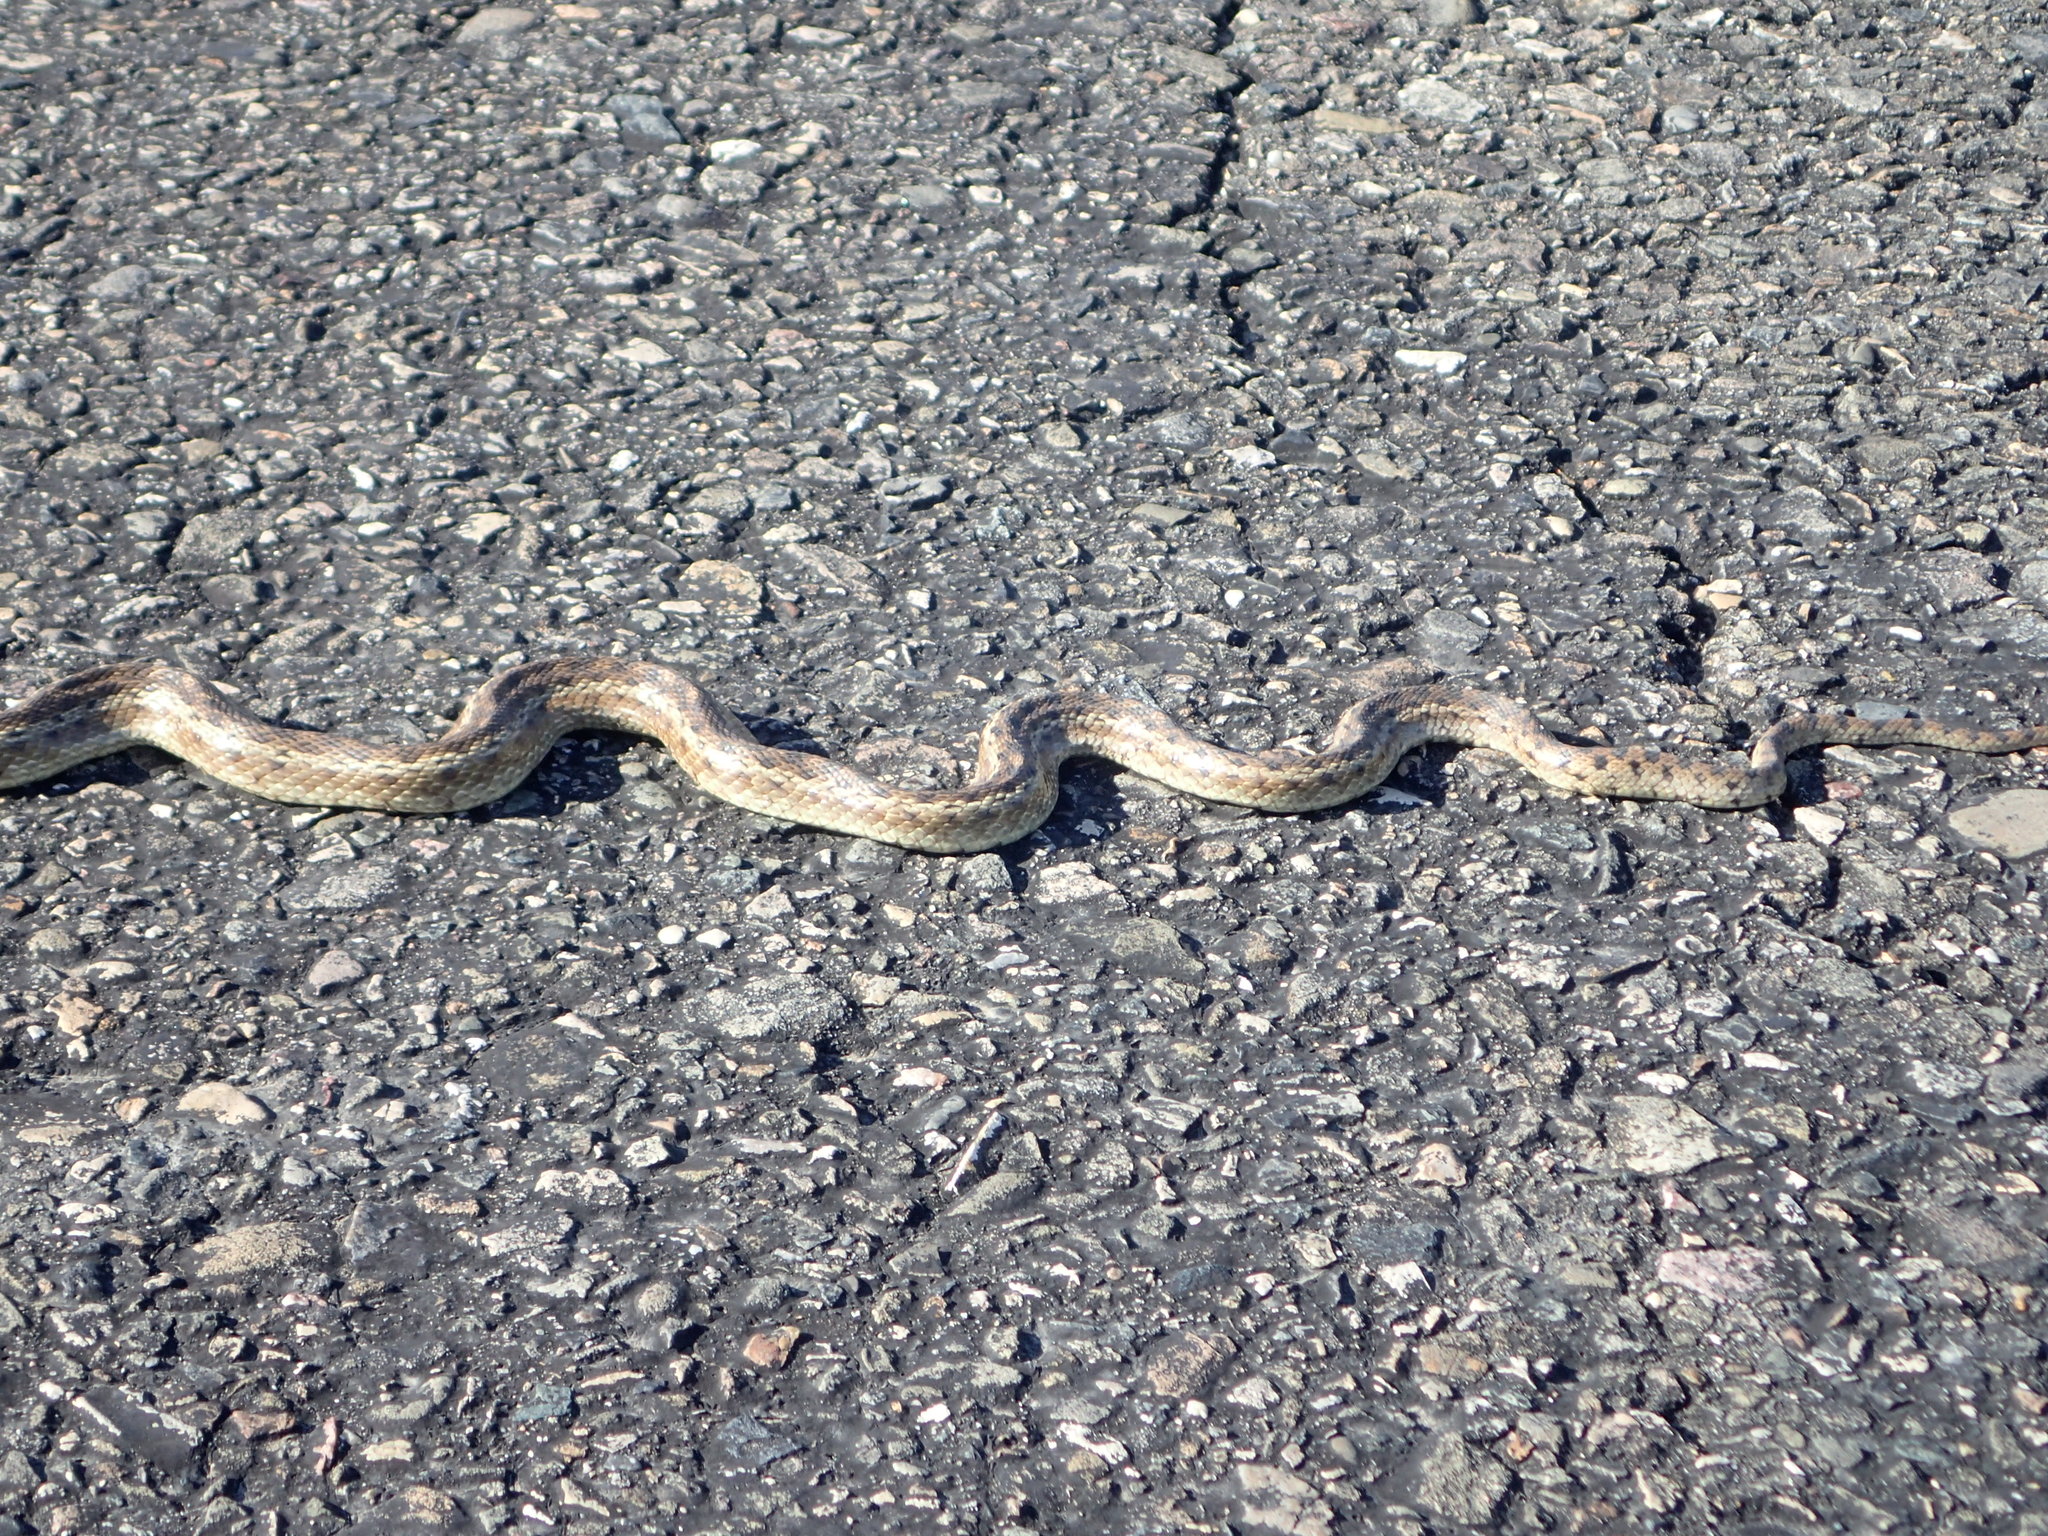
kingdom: Animalia
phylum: Chordata
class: Squamata
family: Colubridae
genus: Pituophis
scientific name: Pituophis catenifer
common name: Gopher snake
